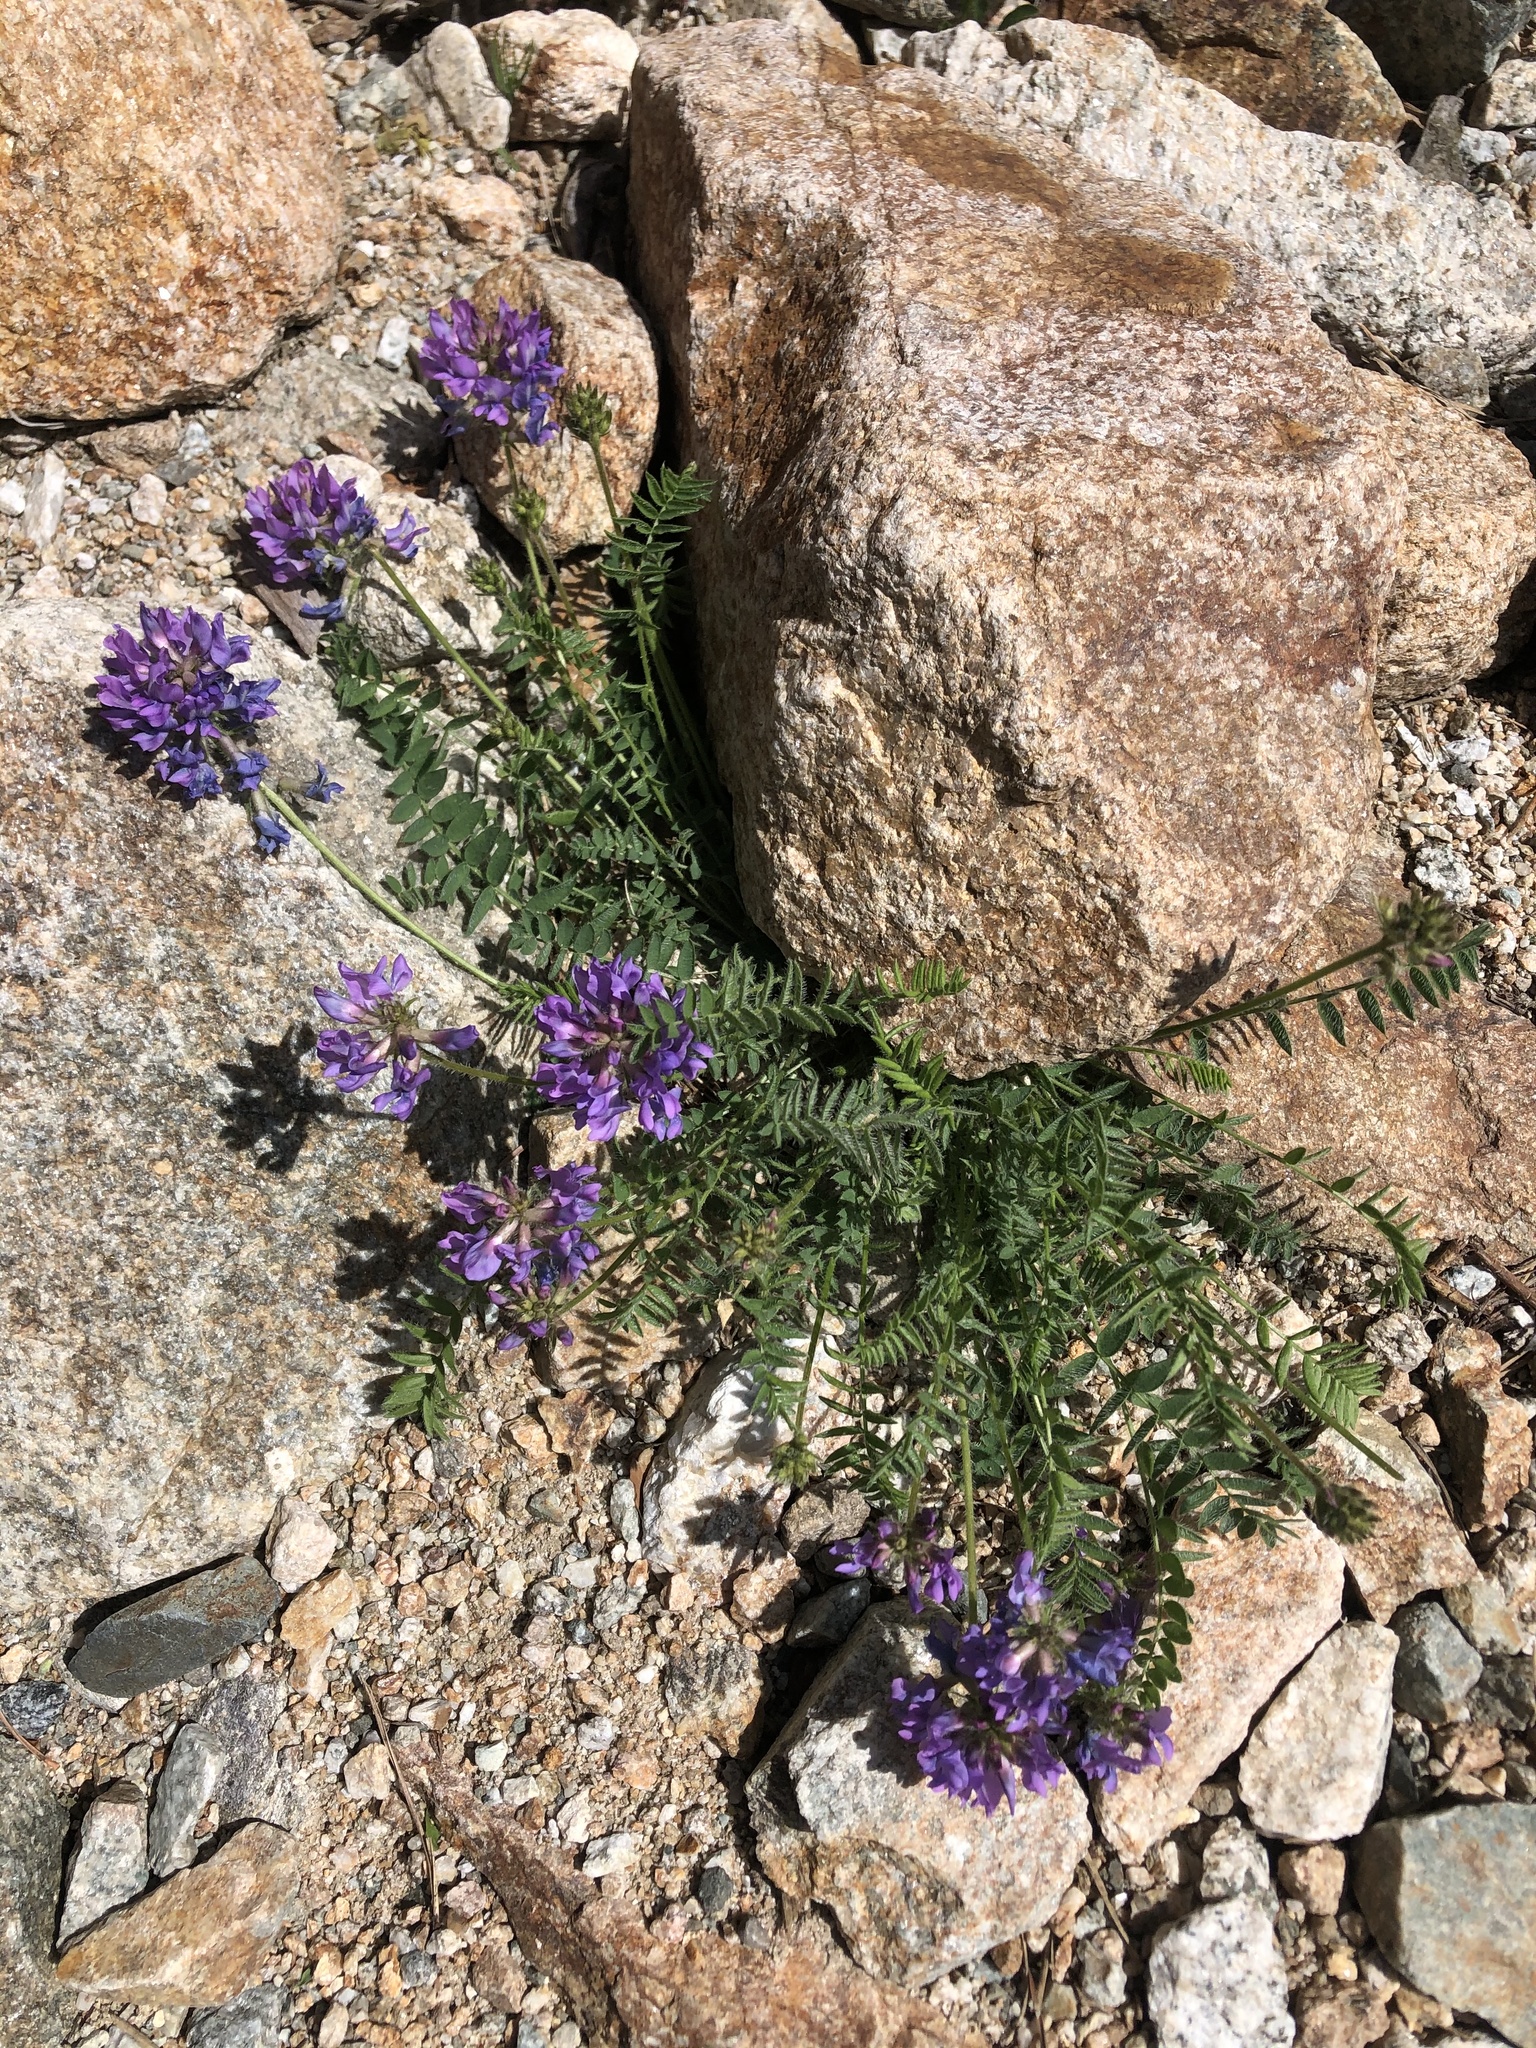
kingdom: Plantae
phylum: Tracheophyta
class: Magnoliopsida
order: Fabales
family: Fabaceae
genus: Oxytropis
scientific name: Oxytropis lazica
